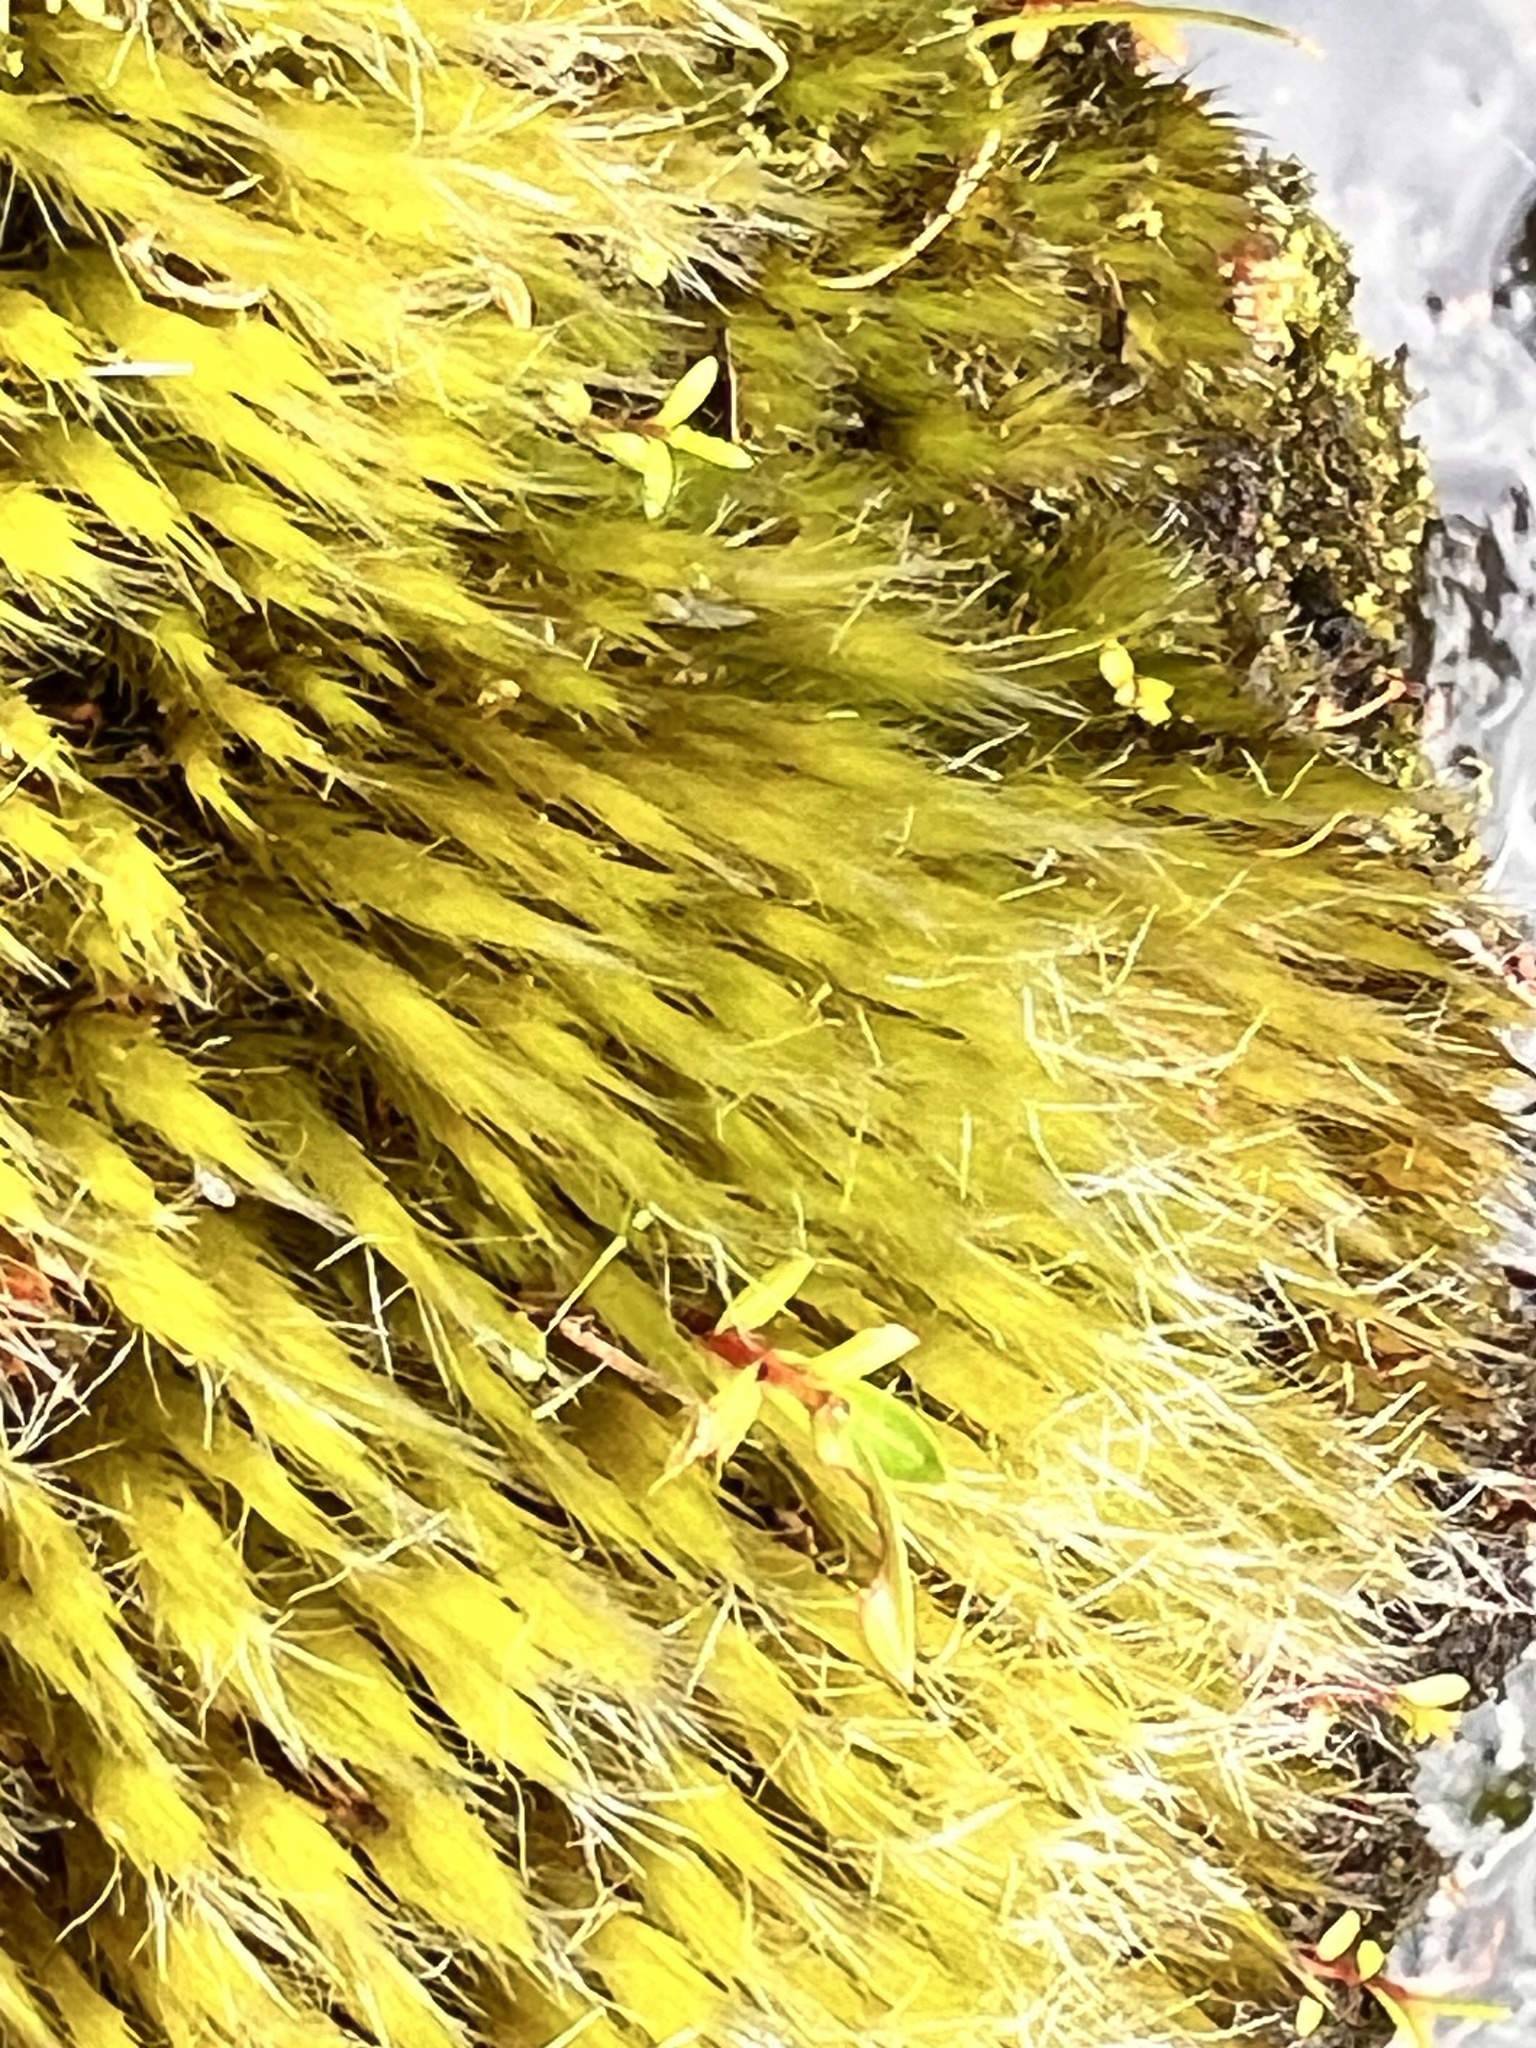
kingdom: Plantae
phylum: Bryophyta
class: Bryopsida
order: Dicranales
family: Leucobryaceae
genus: Campylopus
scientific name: Campylopus introflexus
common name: Heath star moss
